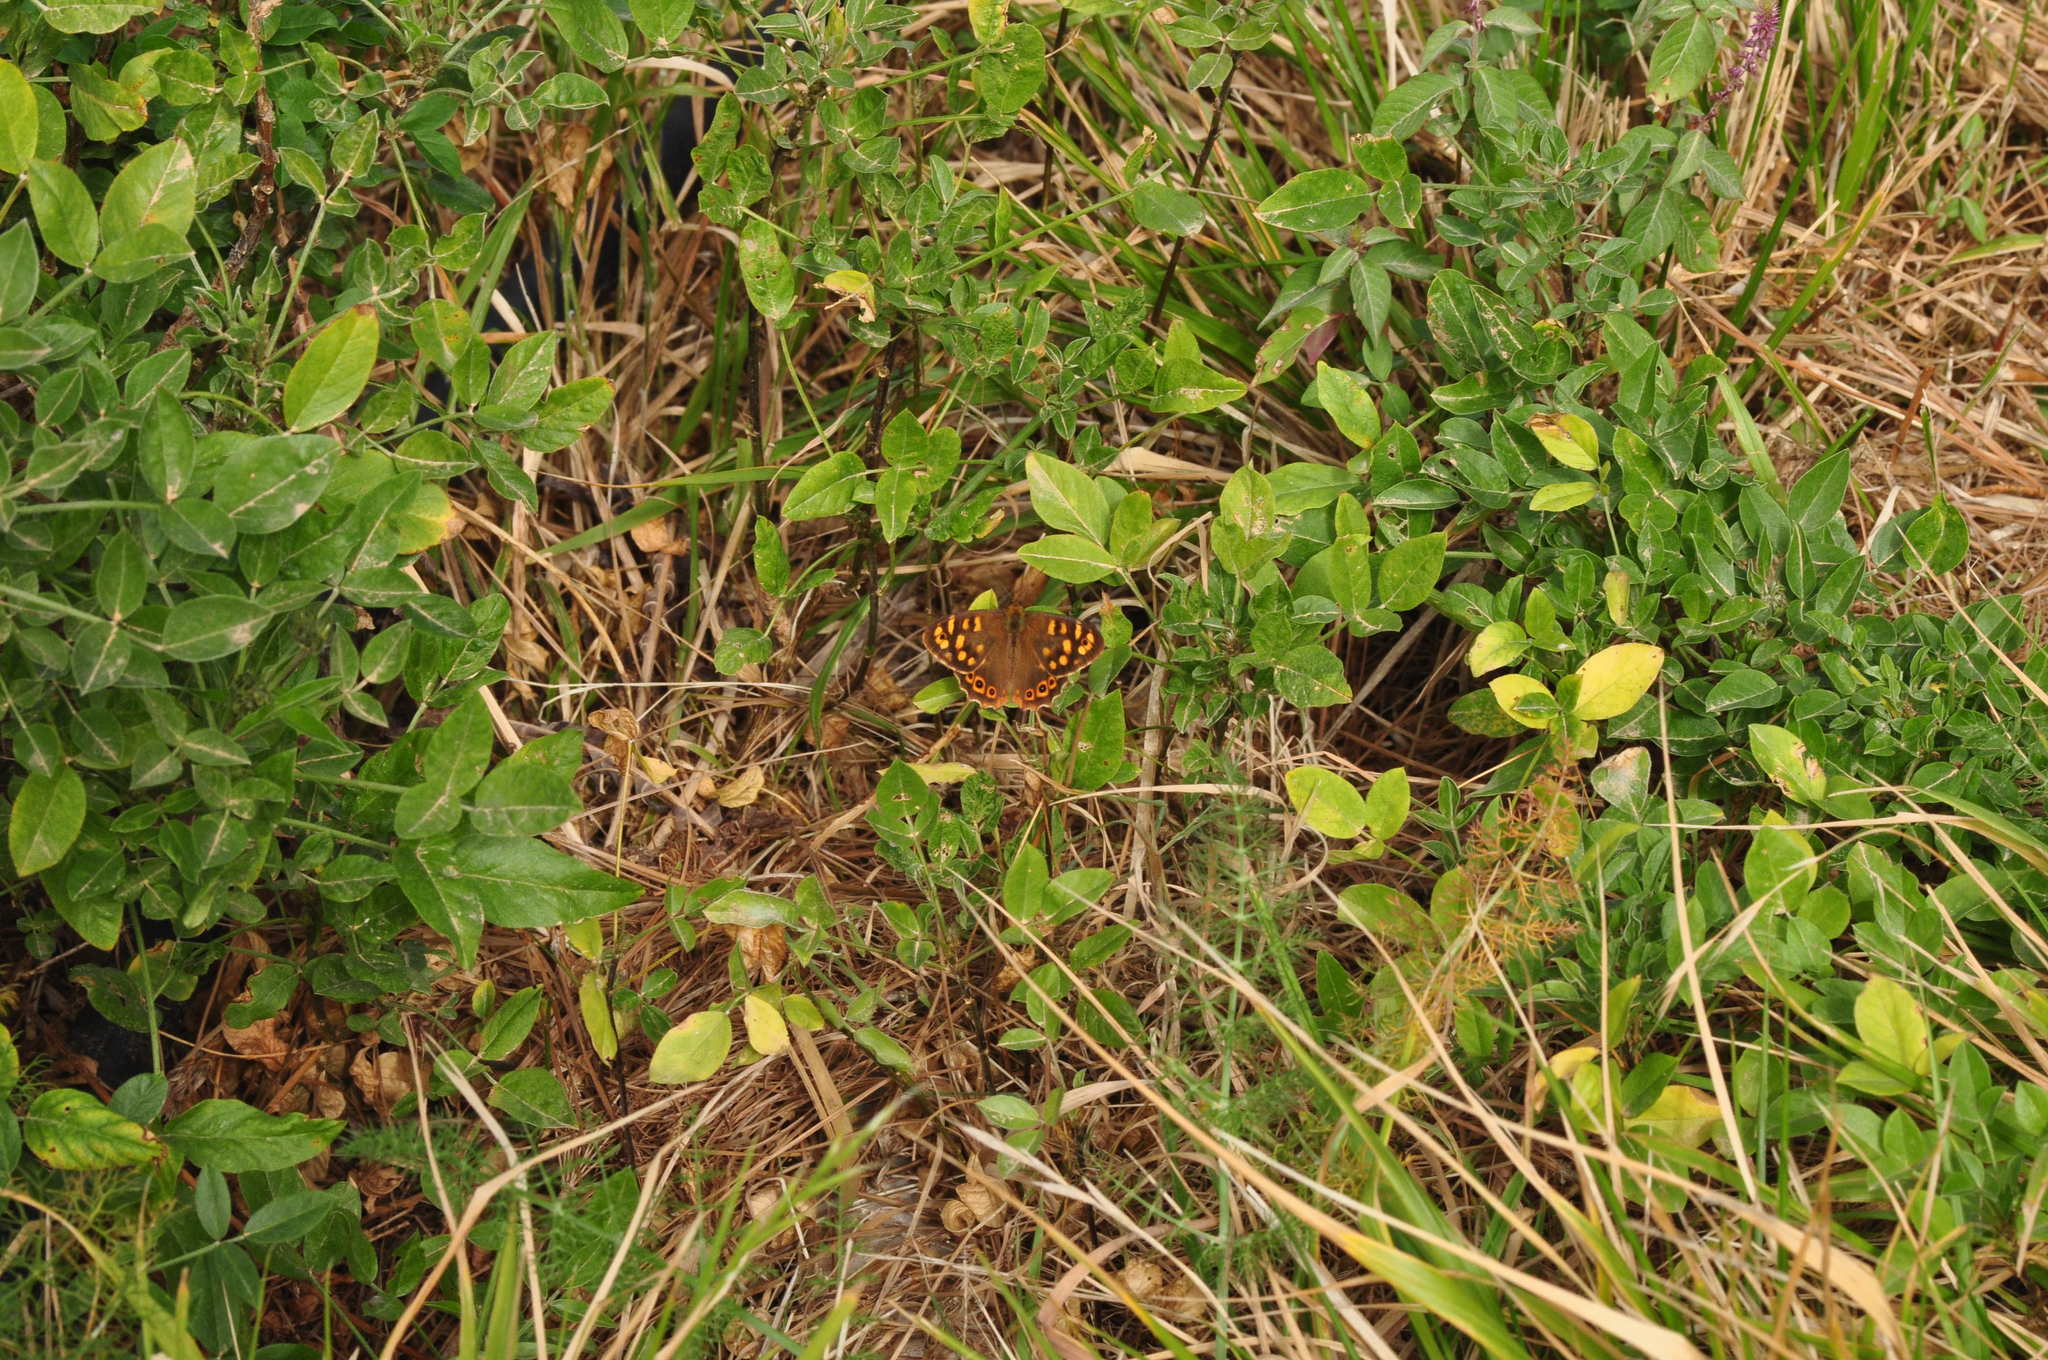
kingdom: Animalia
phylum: Arthropoda
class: Insecta
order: Lepidoptera
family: Nymphalidae
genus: Pararge
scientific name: Pararge aegeria
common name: Speckled wood
